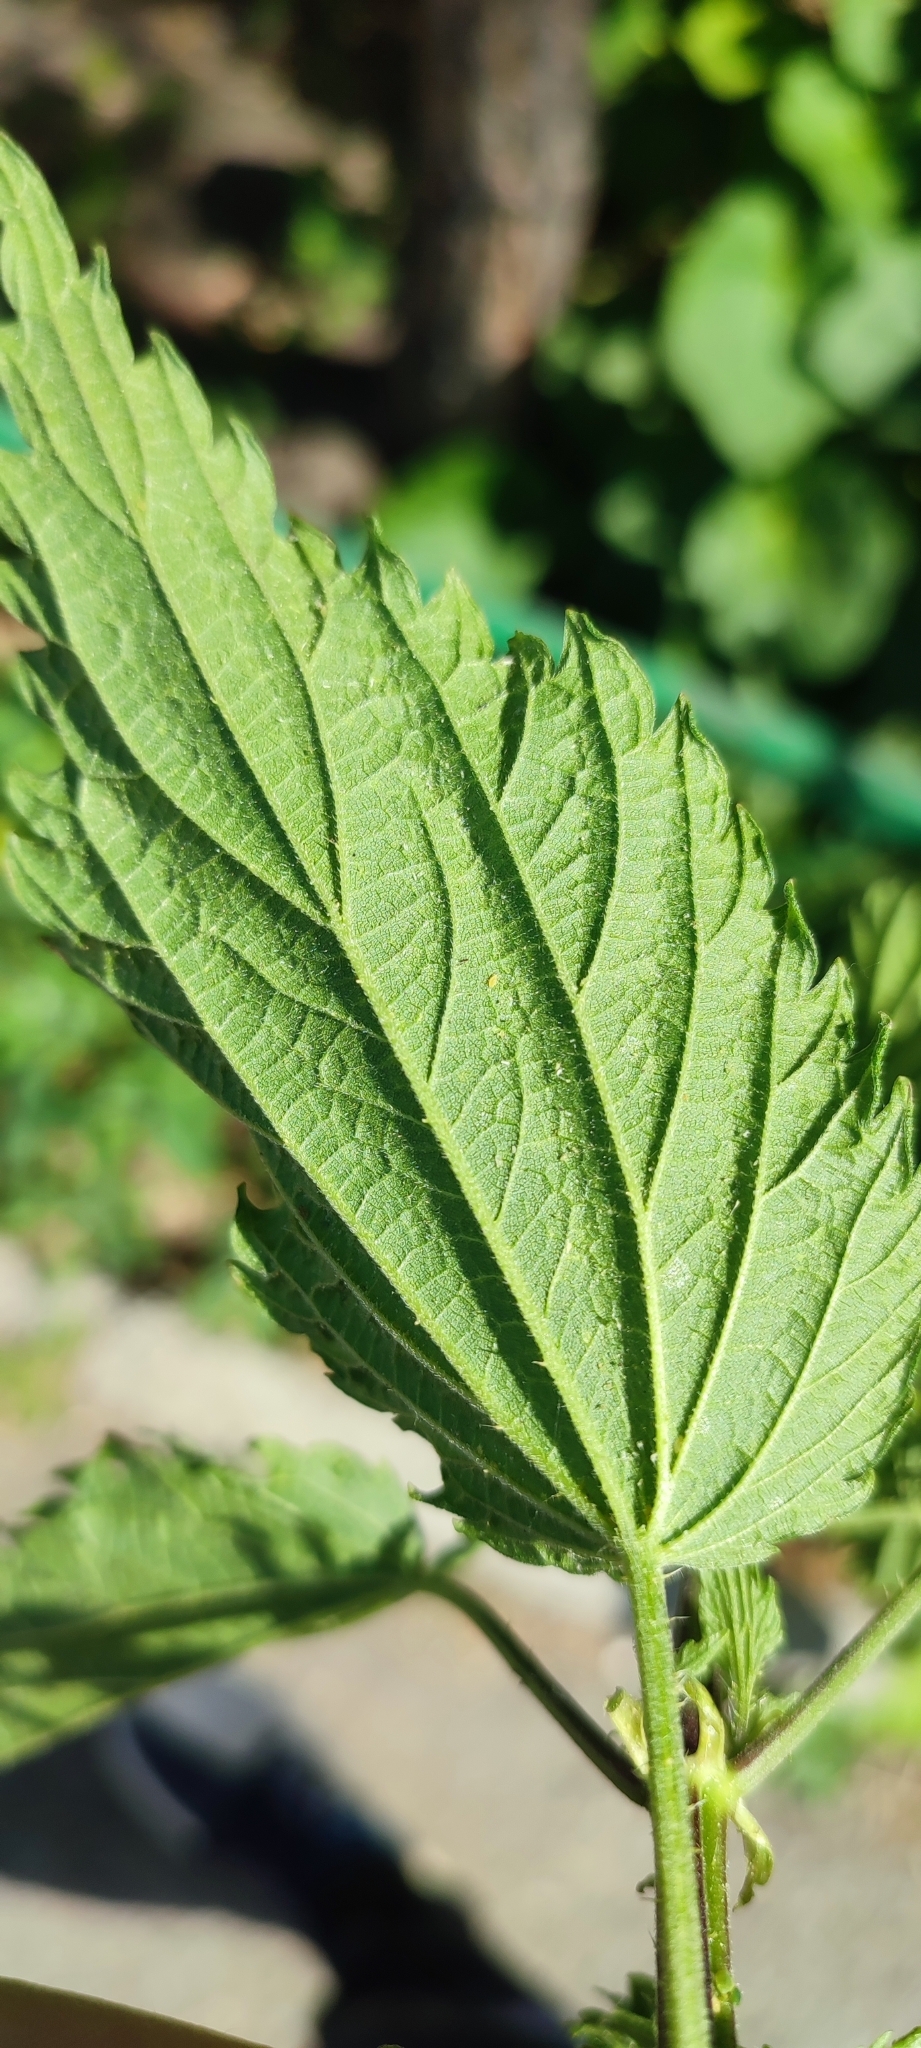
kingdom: Plantae
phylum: Tracheophyta
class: Magnoliopsida
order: Rosales
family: Urticaceae
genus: Urtica
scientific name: Urtica galeopsifolia
